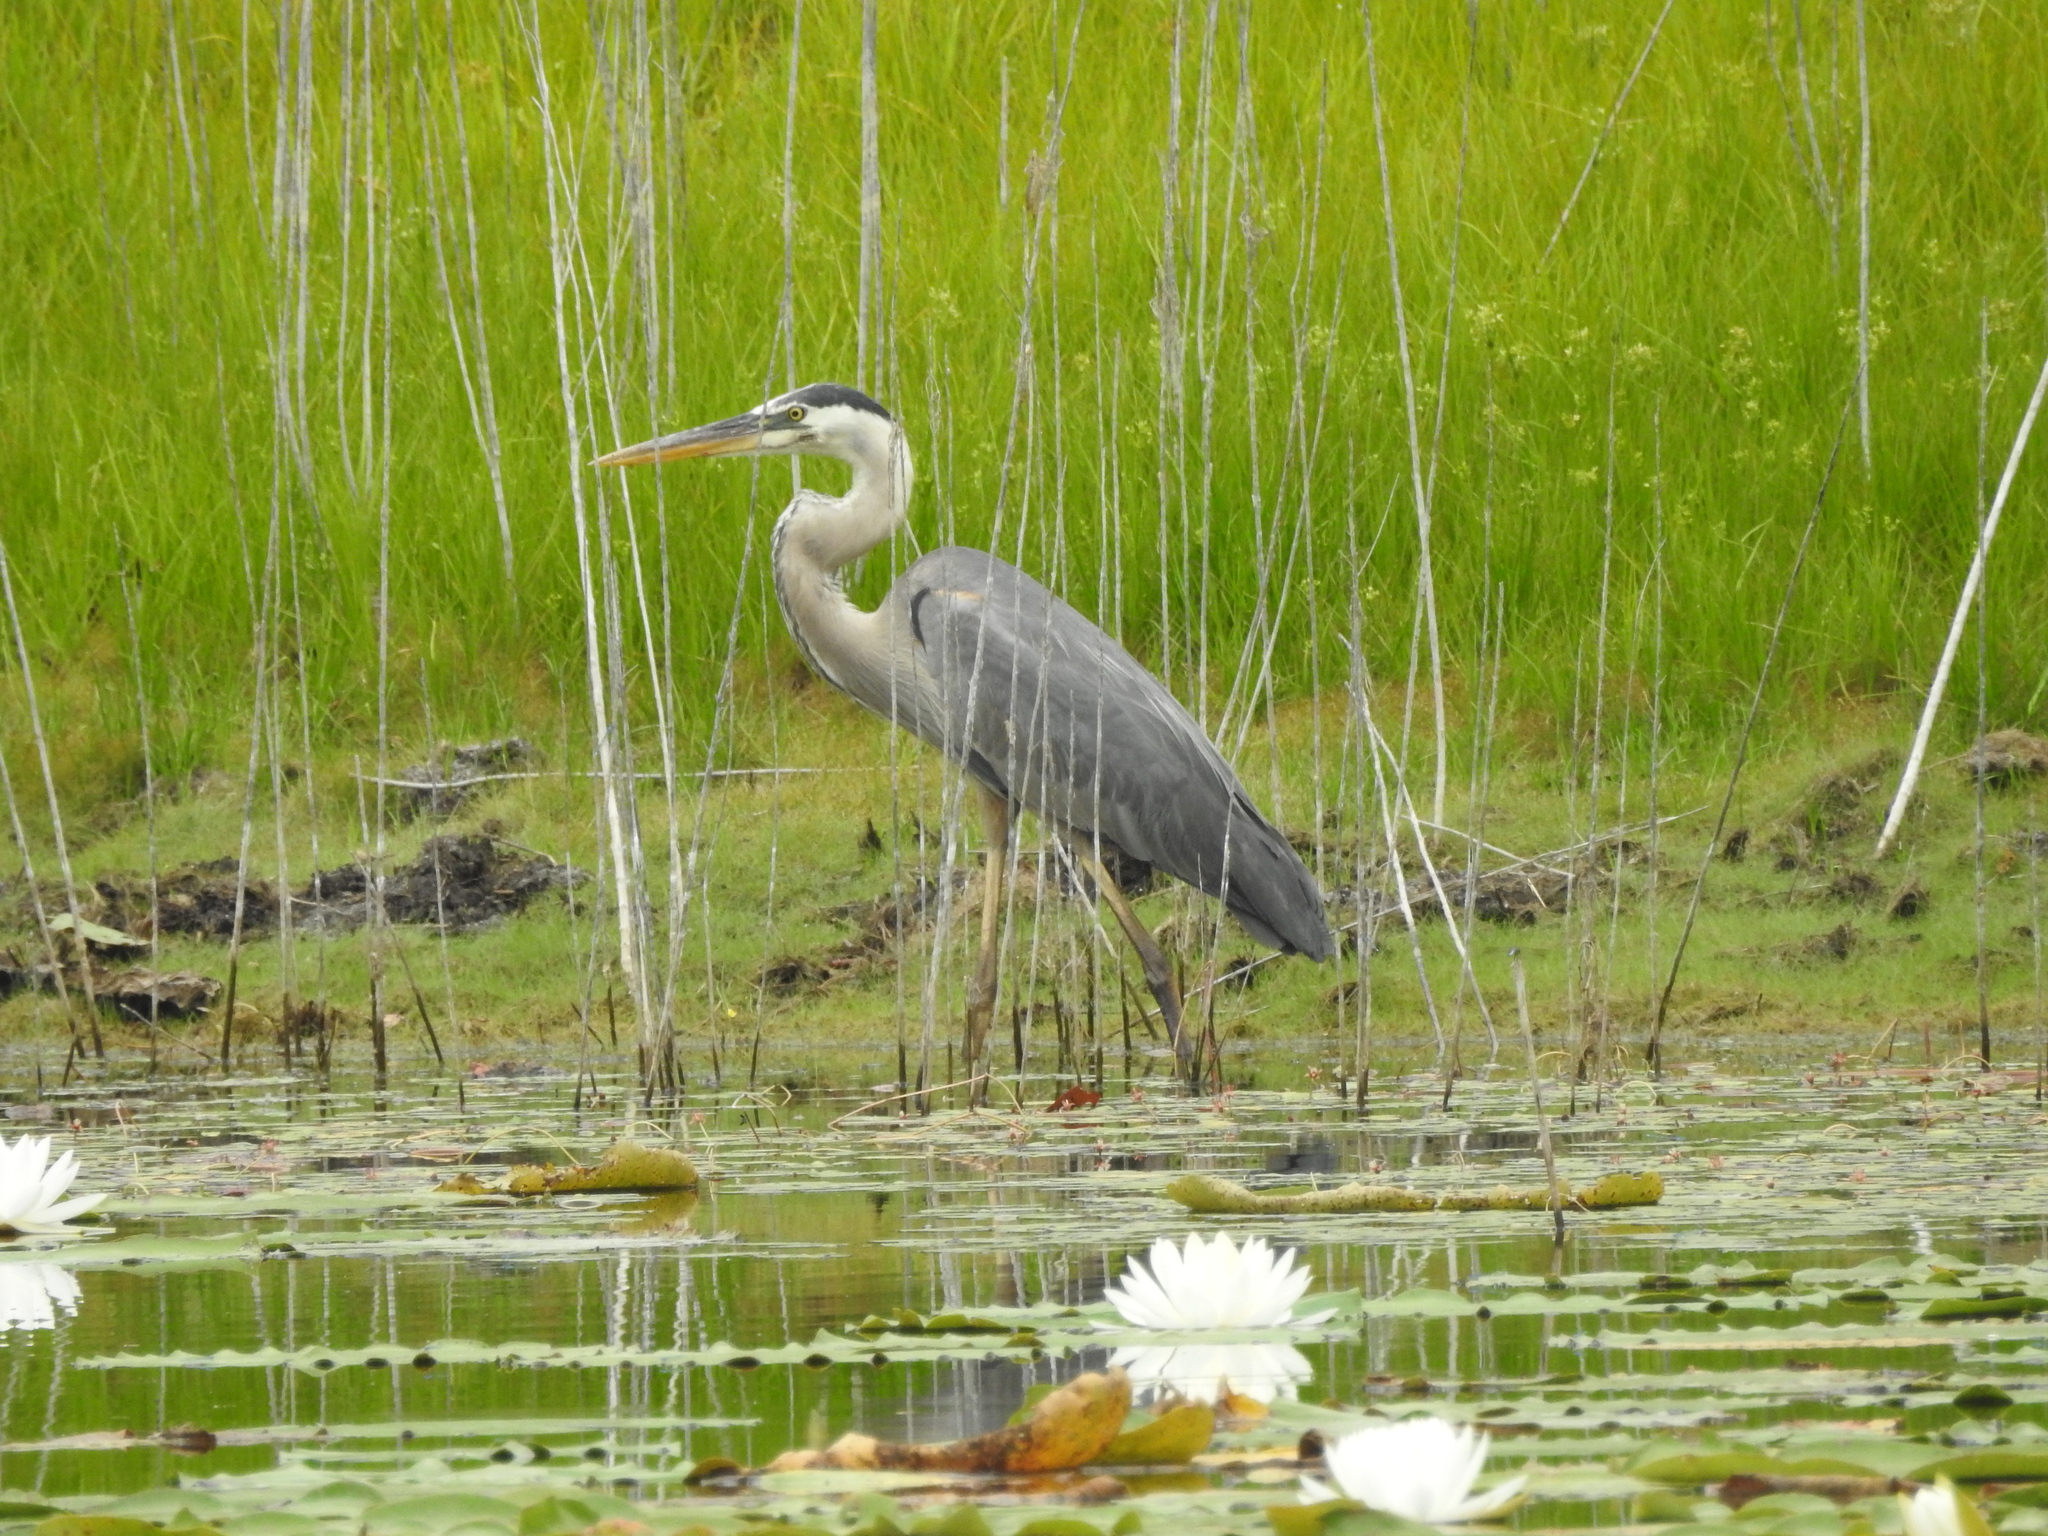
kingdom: Animalia
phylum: Chordata
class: Aves
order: Pelecaniformes
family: Ardeidae
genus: Ardea
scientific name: Ardea herodias
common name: Great blue heron
